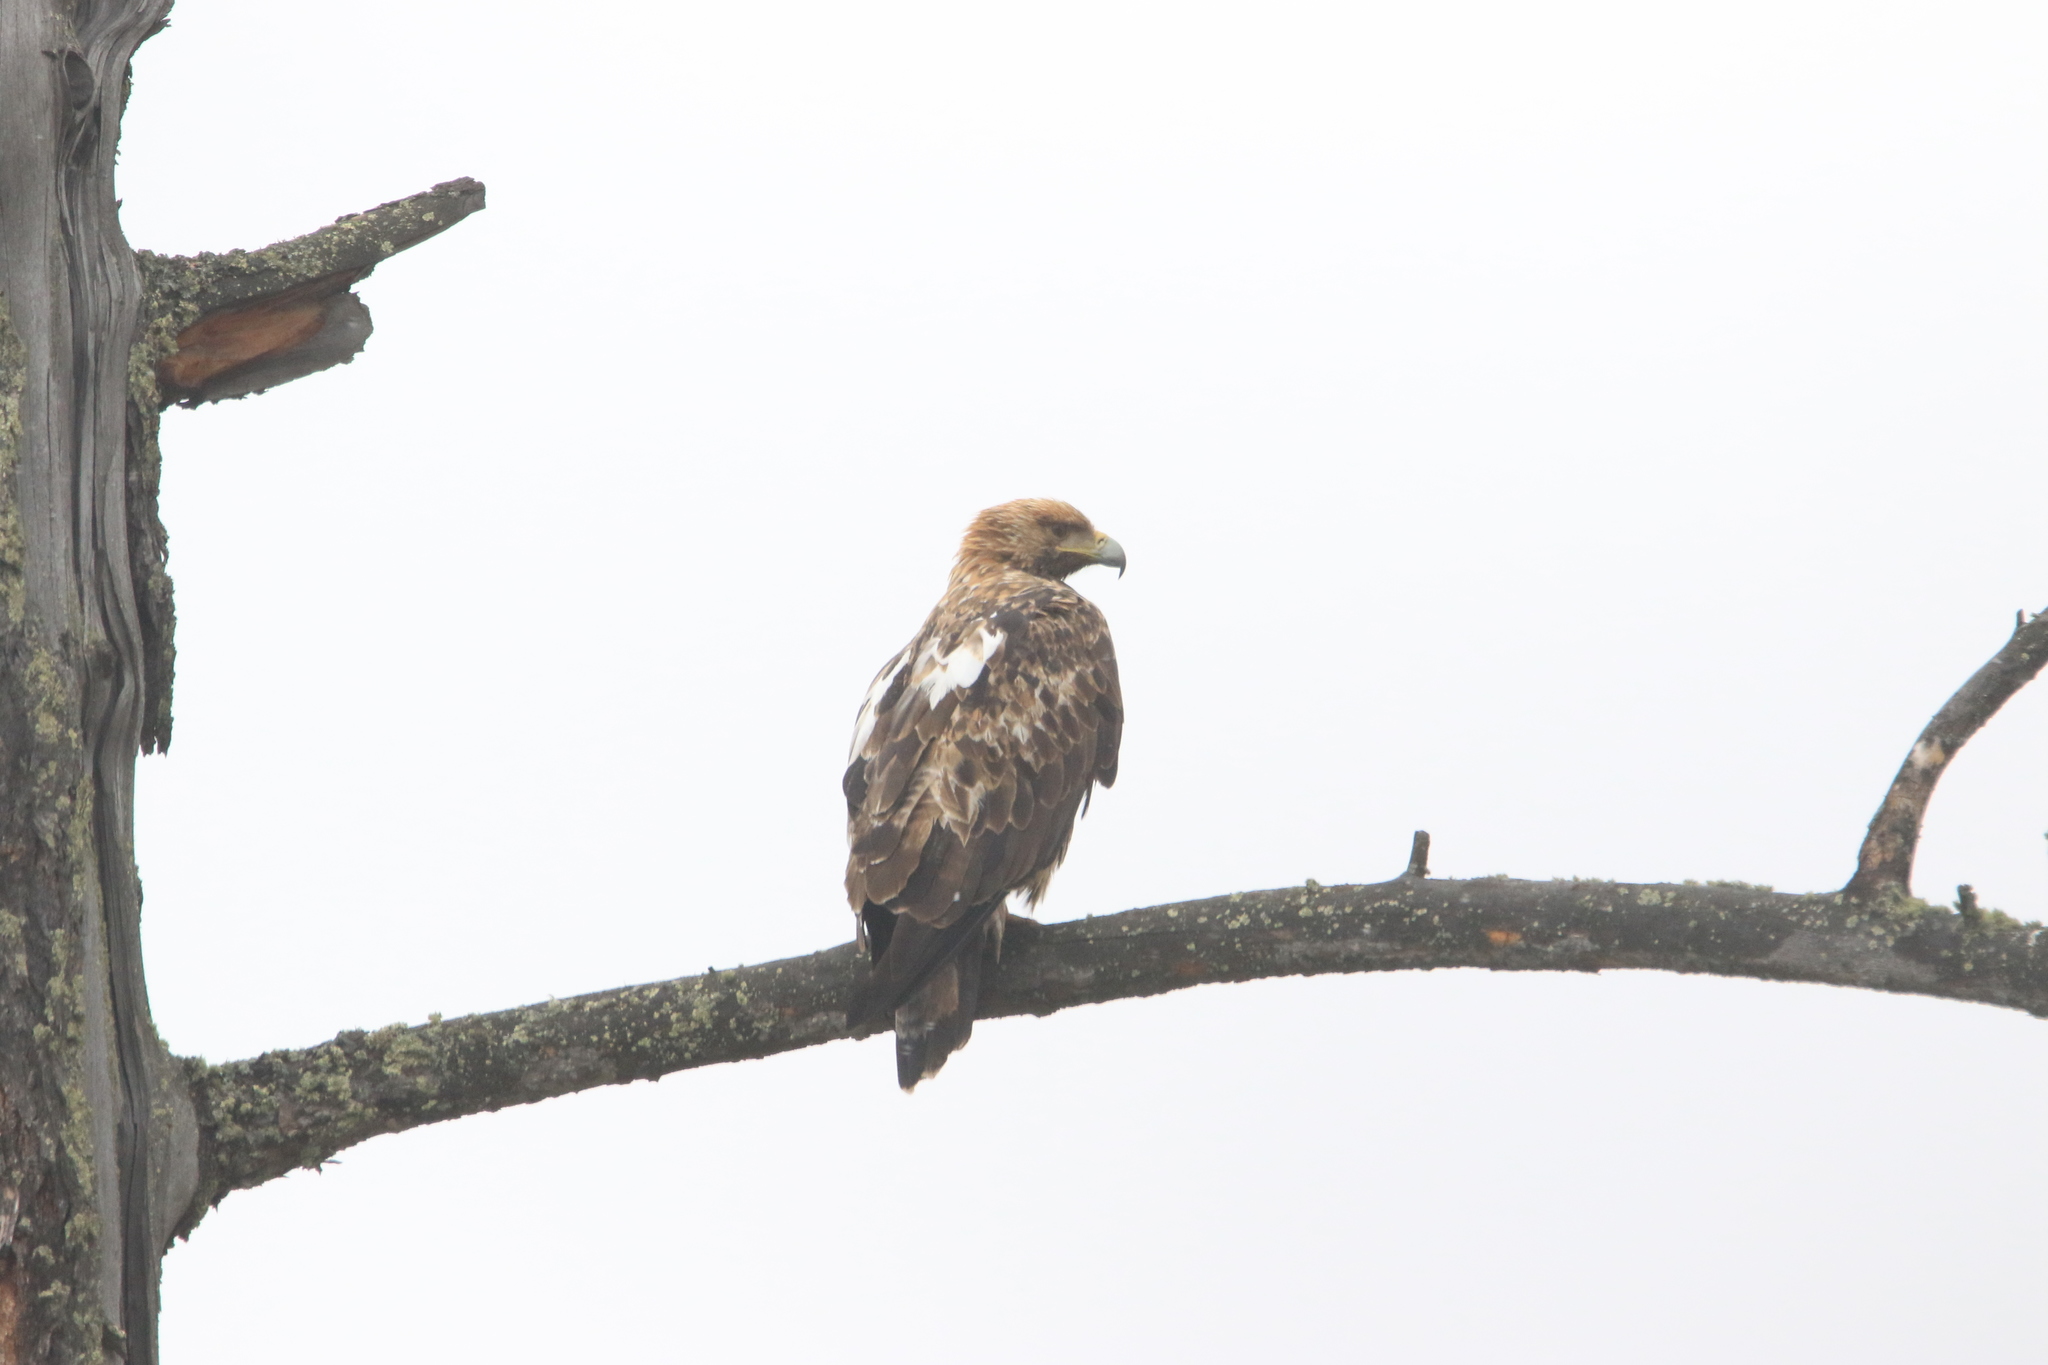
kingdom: Animalia
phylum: Chordata
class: Aves
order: Accipitriformes
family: Accipitridae
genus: Aquila
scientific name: Aquila heliaca
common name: Eastern imperial eagle
